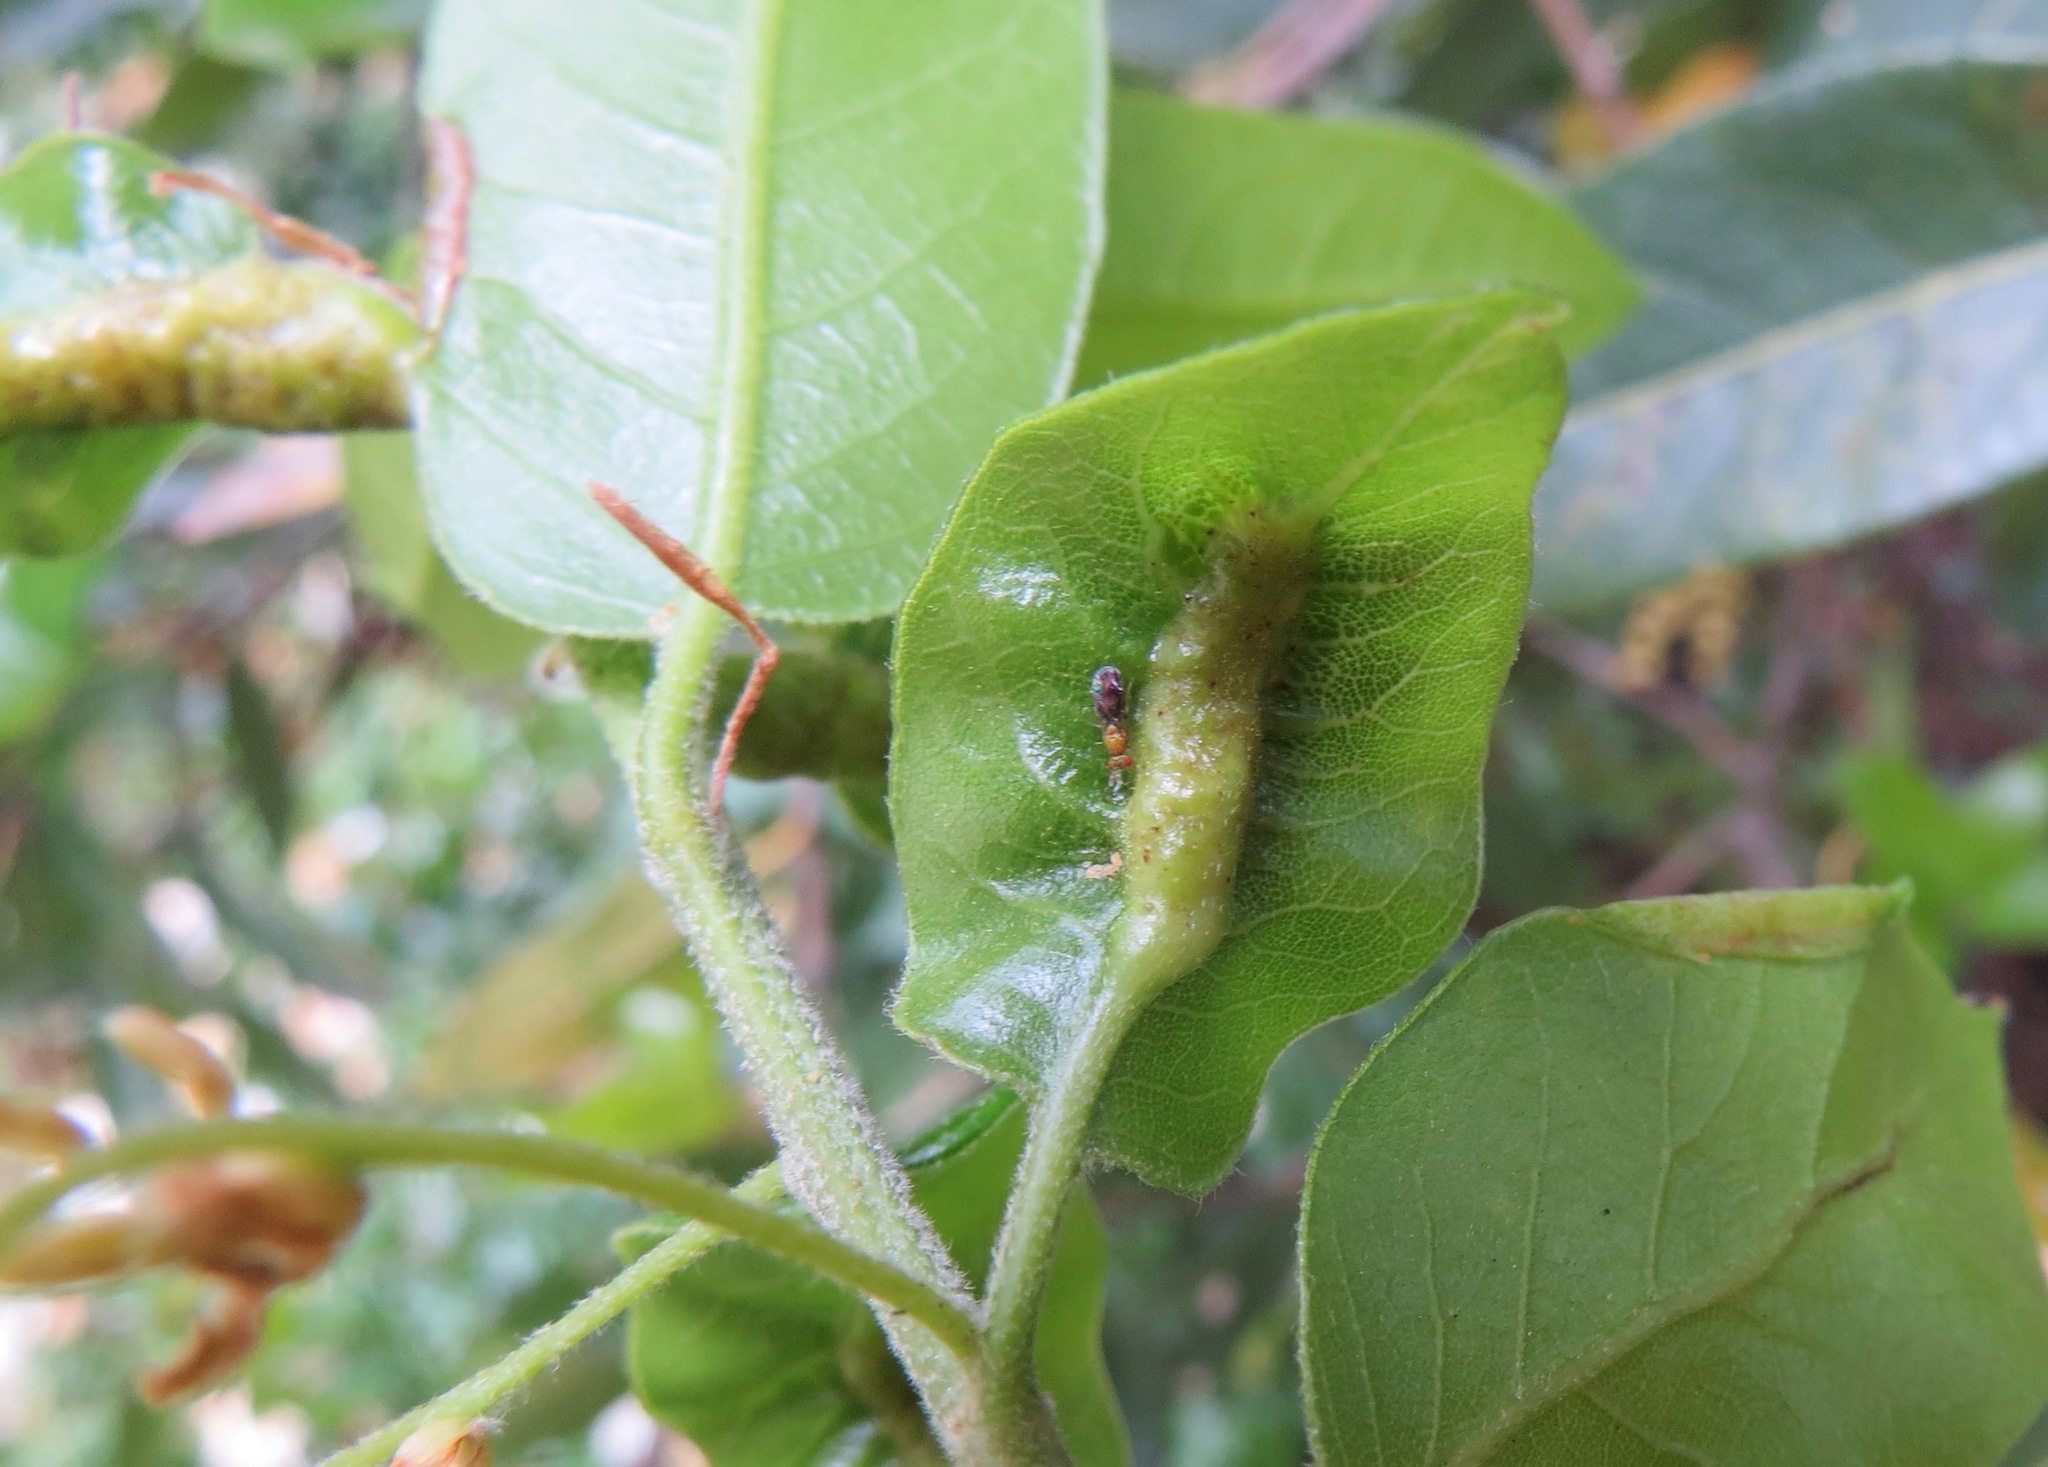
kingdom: Animalia
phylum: Arthropoda
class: Insecta
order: Hymenoptera
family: Cynipidae
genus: Melikaiella
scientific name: Melikaiella
